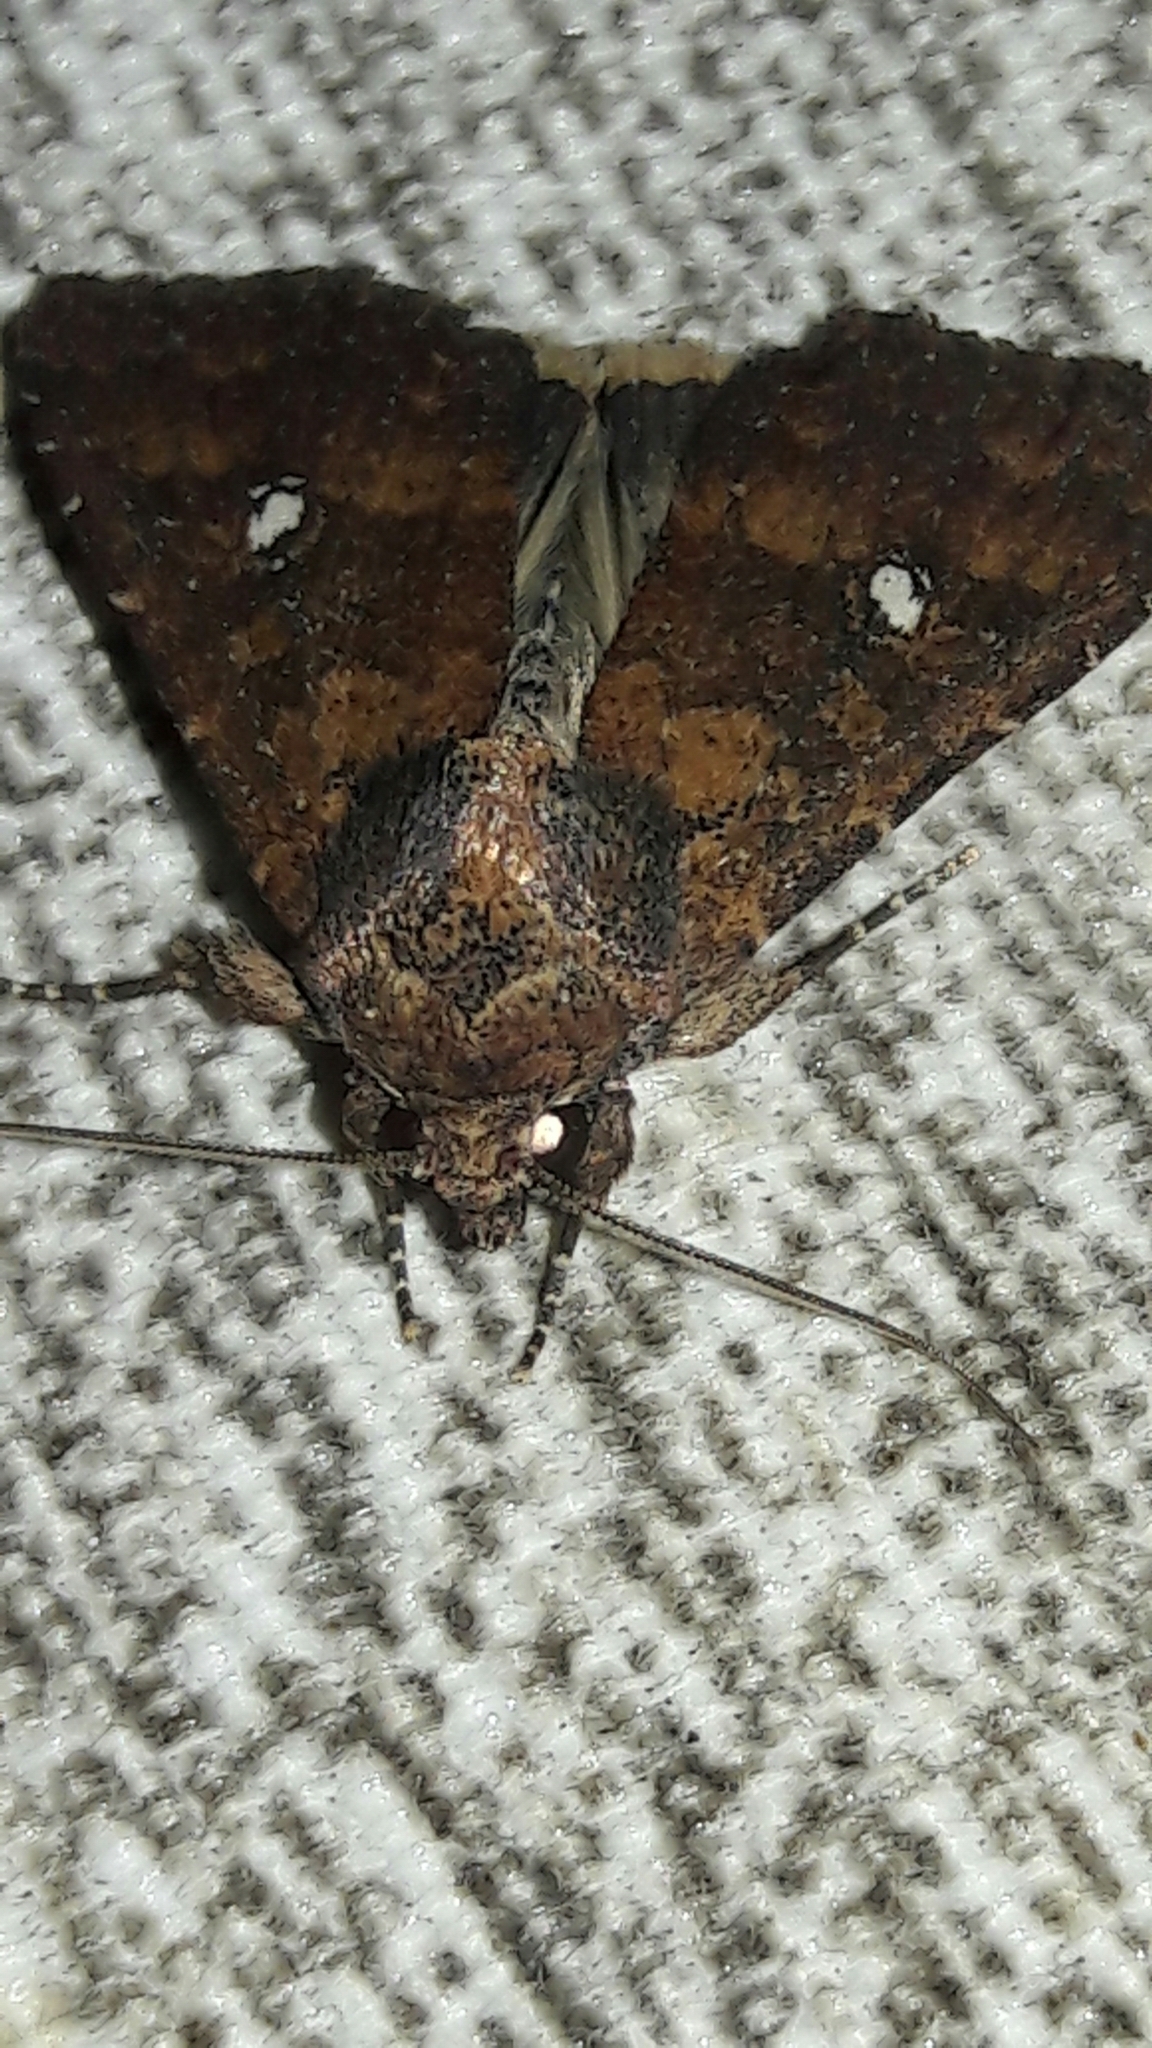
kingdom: Animalia
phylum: Arthropoda
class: Insecta
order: Lepidoptera
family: Noctuidae
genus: Condica
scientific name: Condica mobilis
